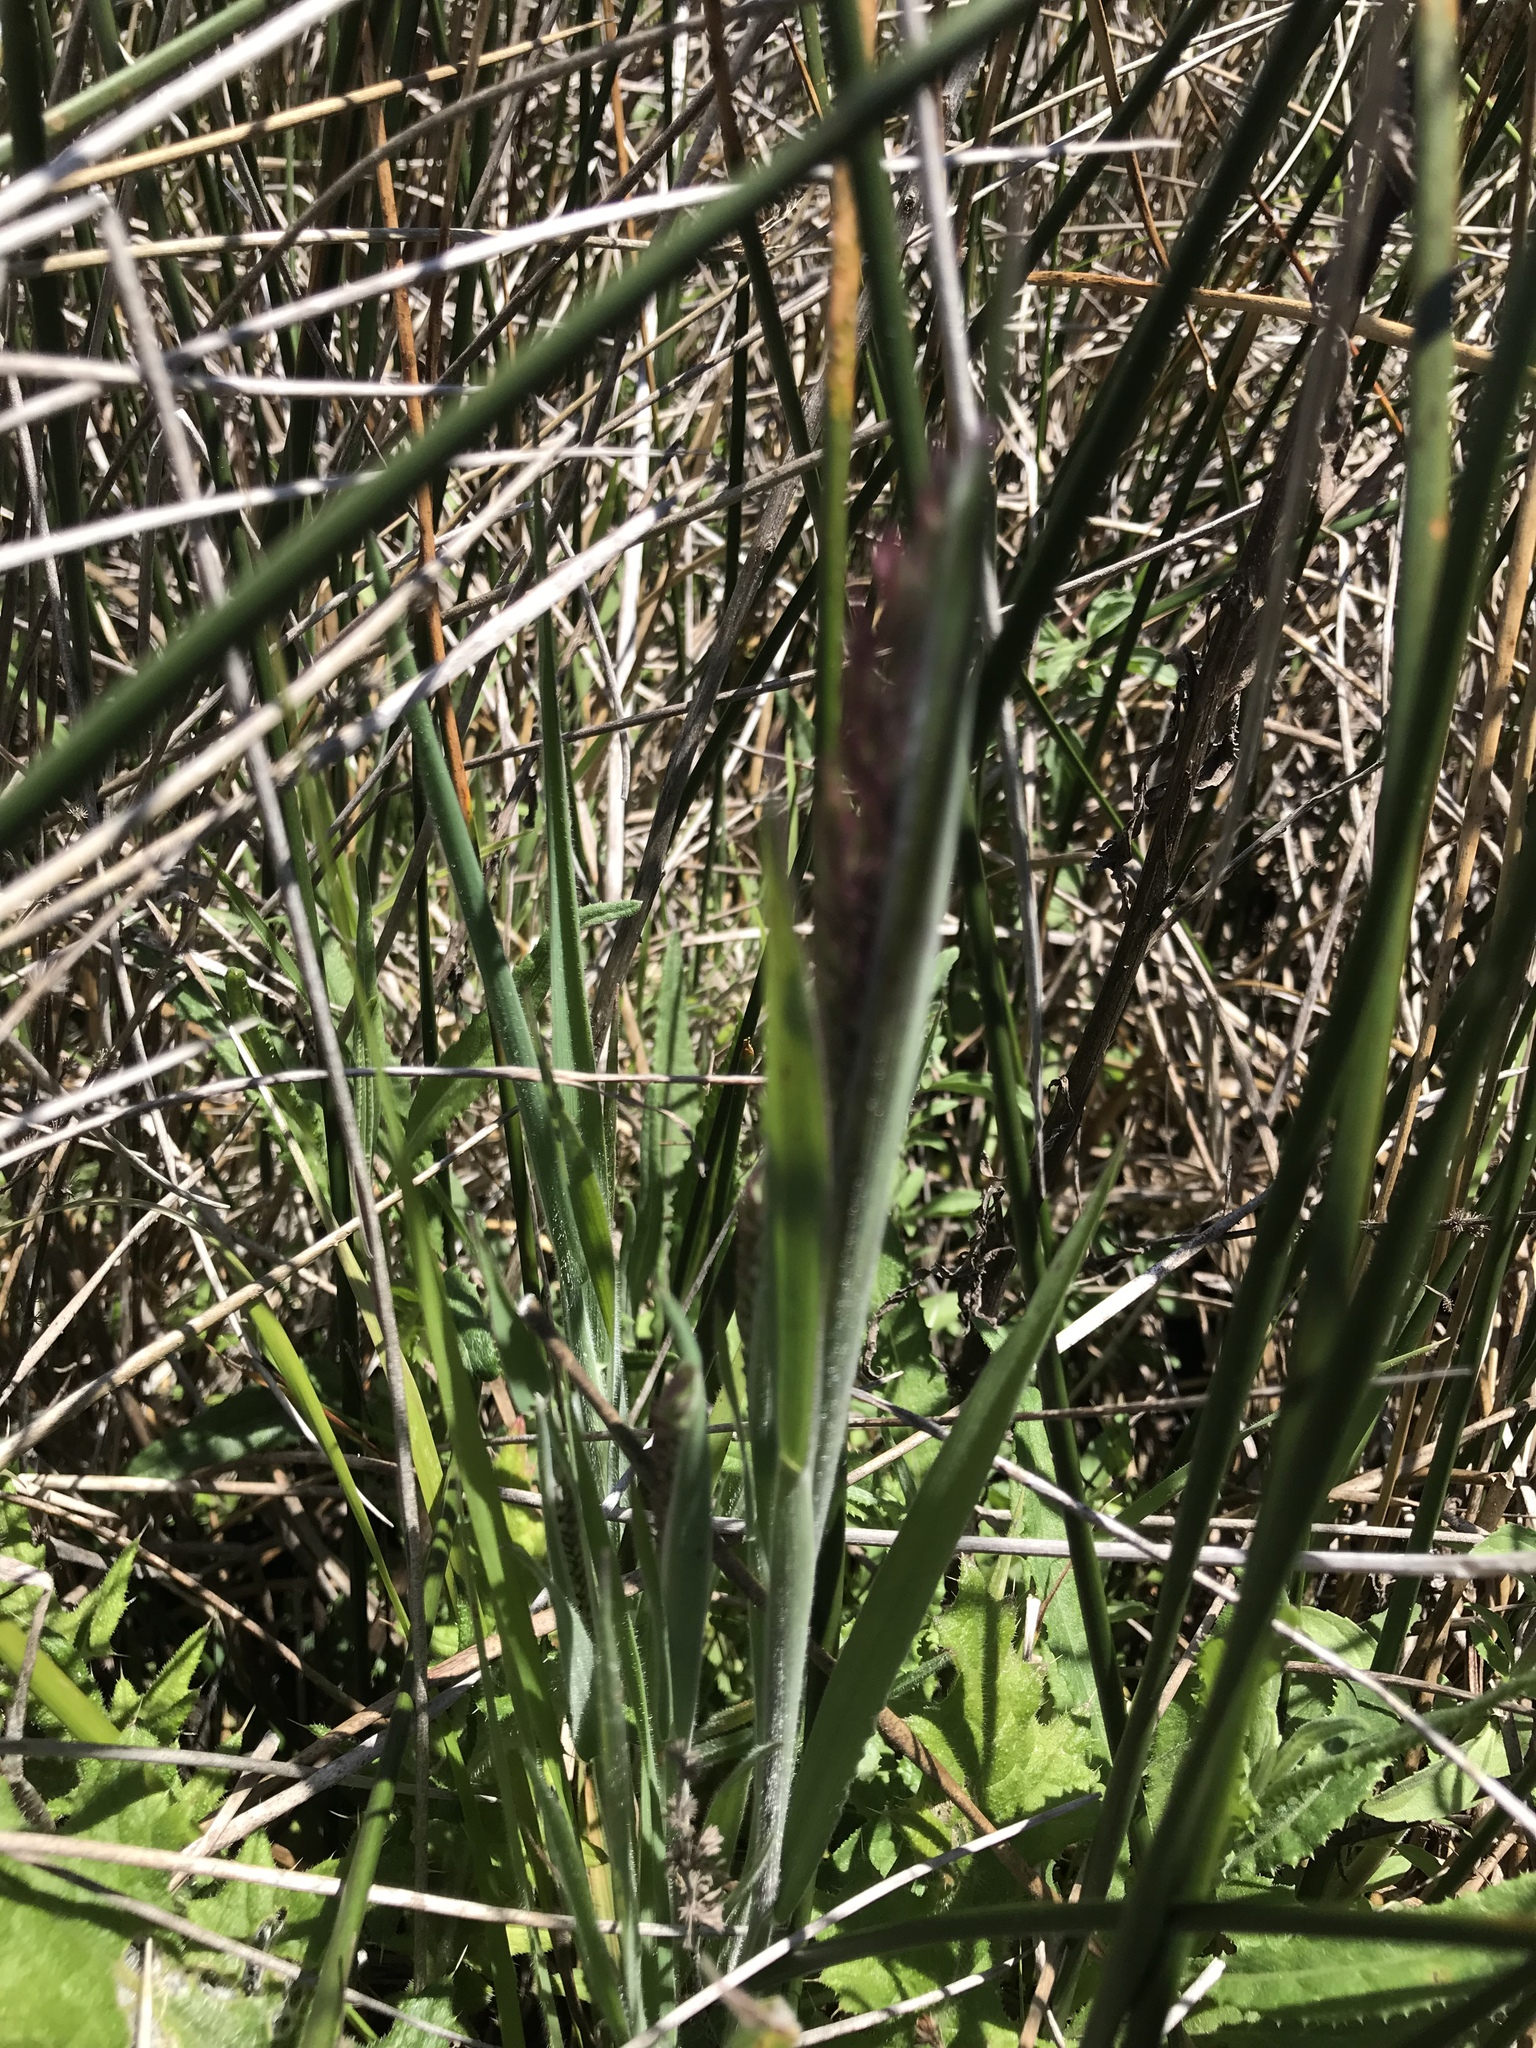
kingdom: Plantae
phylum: Tracheophyta
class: Liliopsida
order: Poales
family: Poaceae
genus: Holcus
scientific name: Holcus lanatus
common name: Yorkshire-fog
